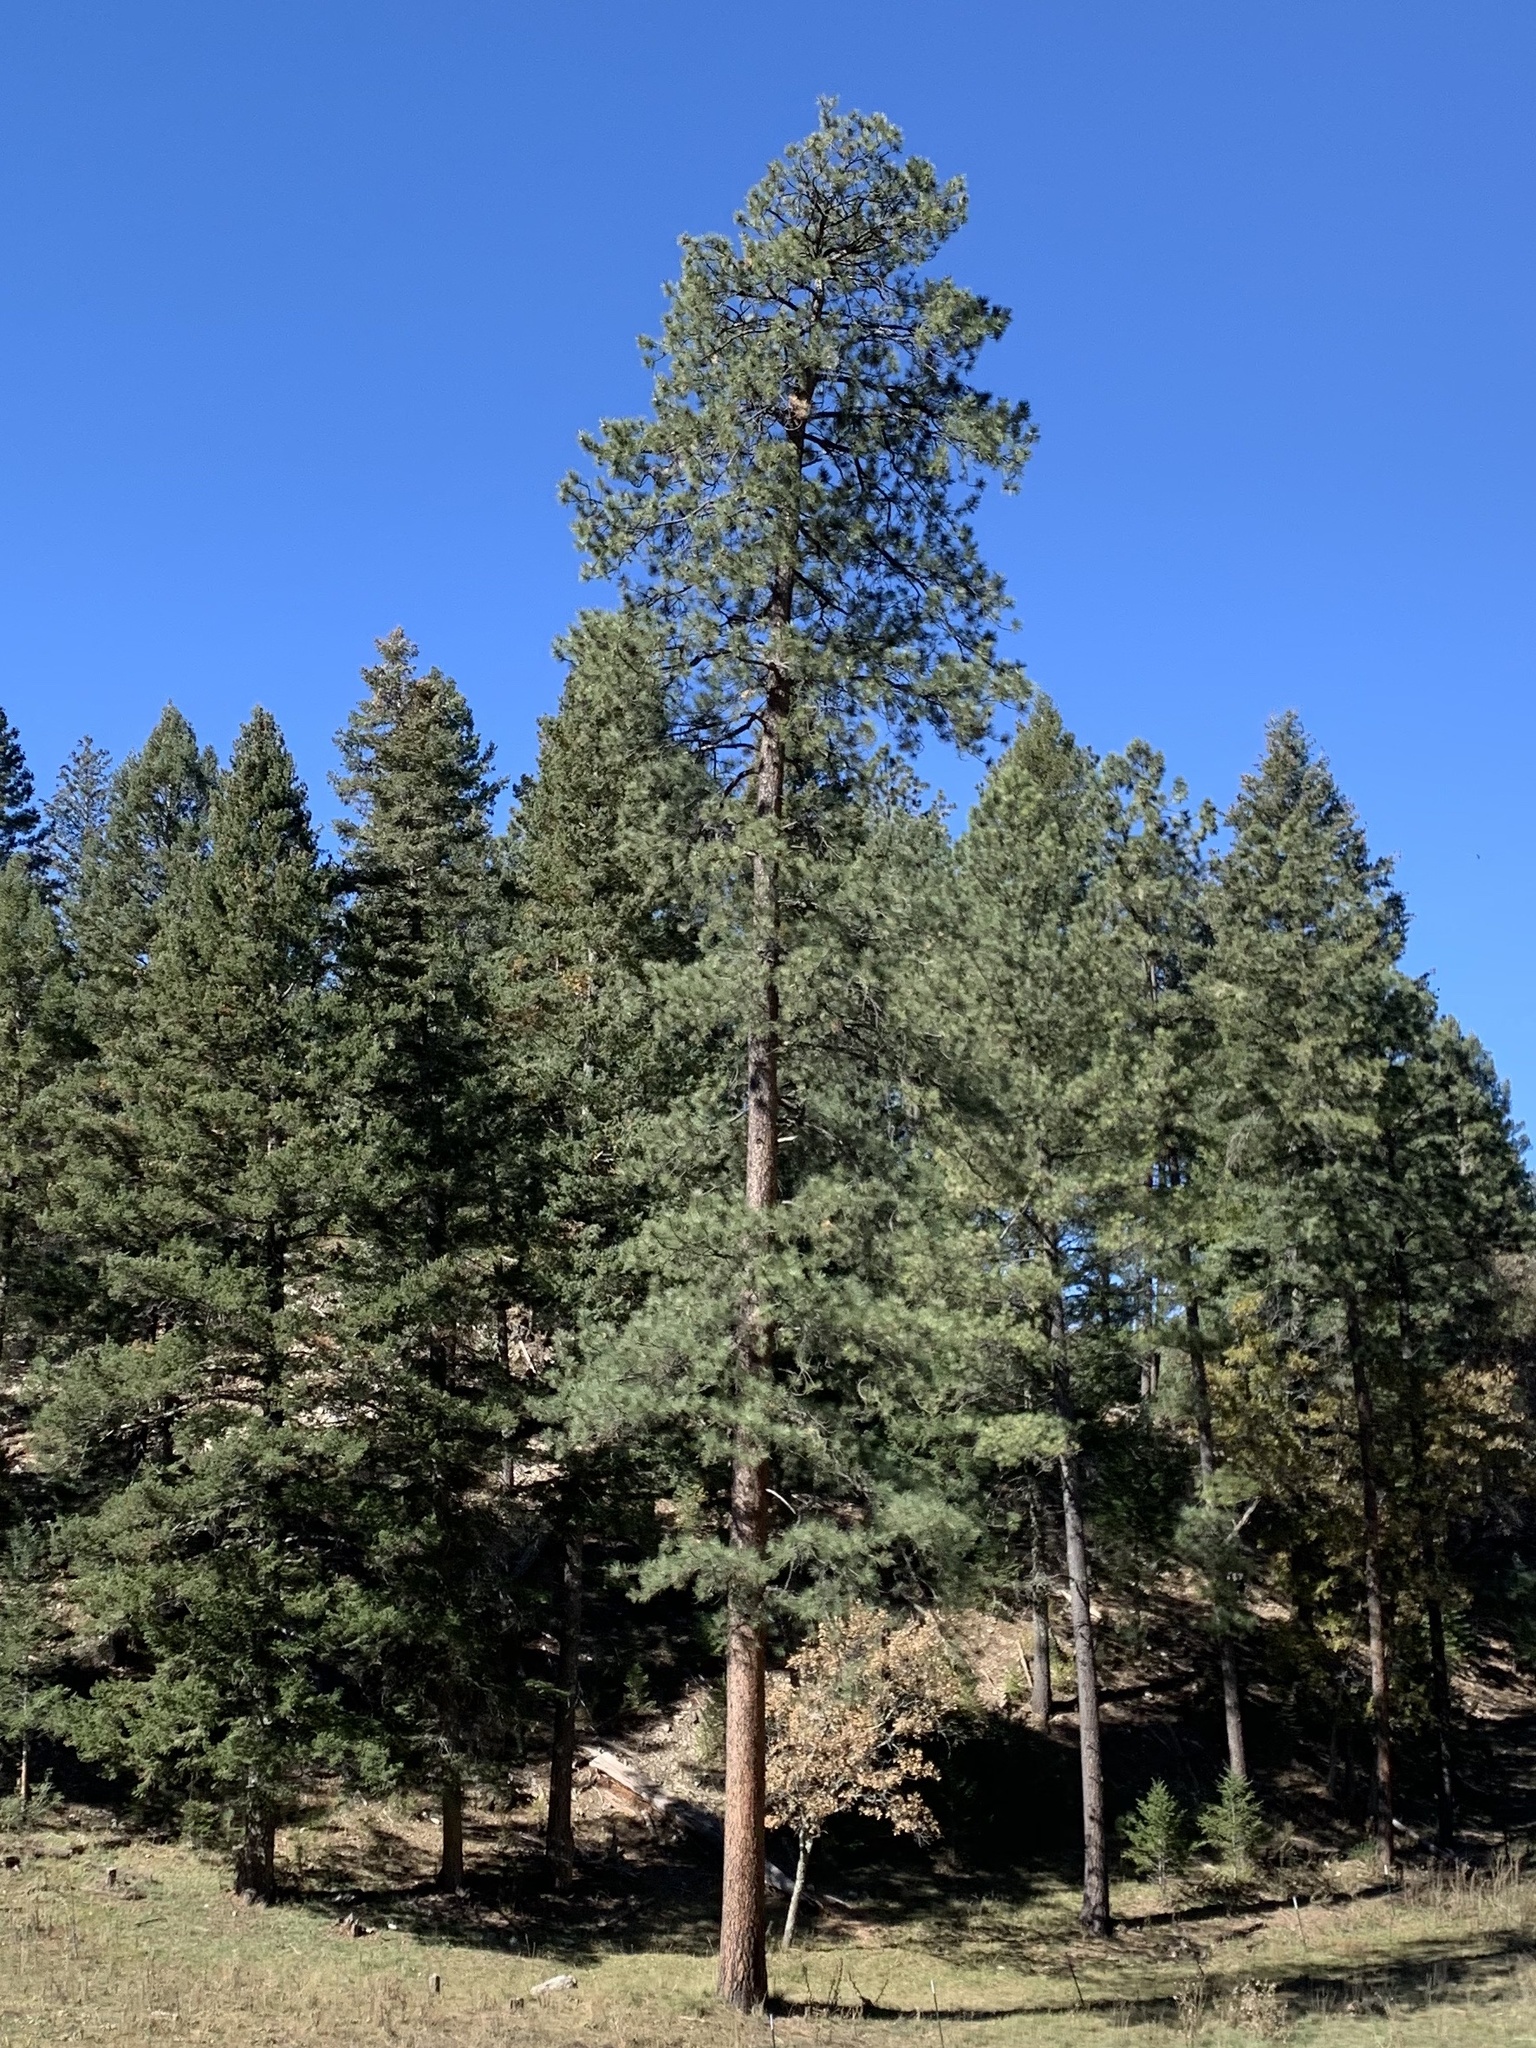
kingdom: Plantae
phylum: Tracheophyta
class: Pinopsida
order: Pinales
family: Pinaceae
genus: Pinus
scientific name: Pinus ponderosa
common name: Western yellow-pine
